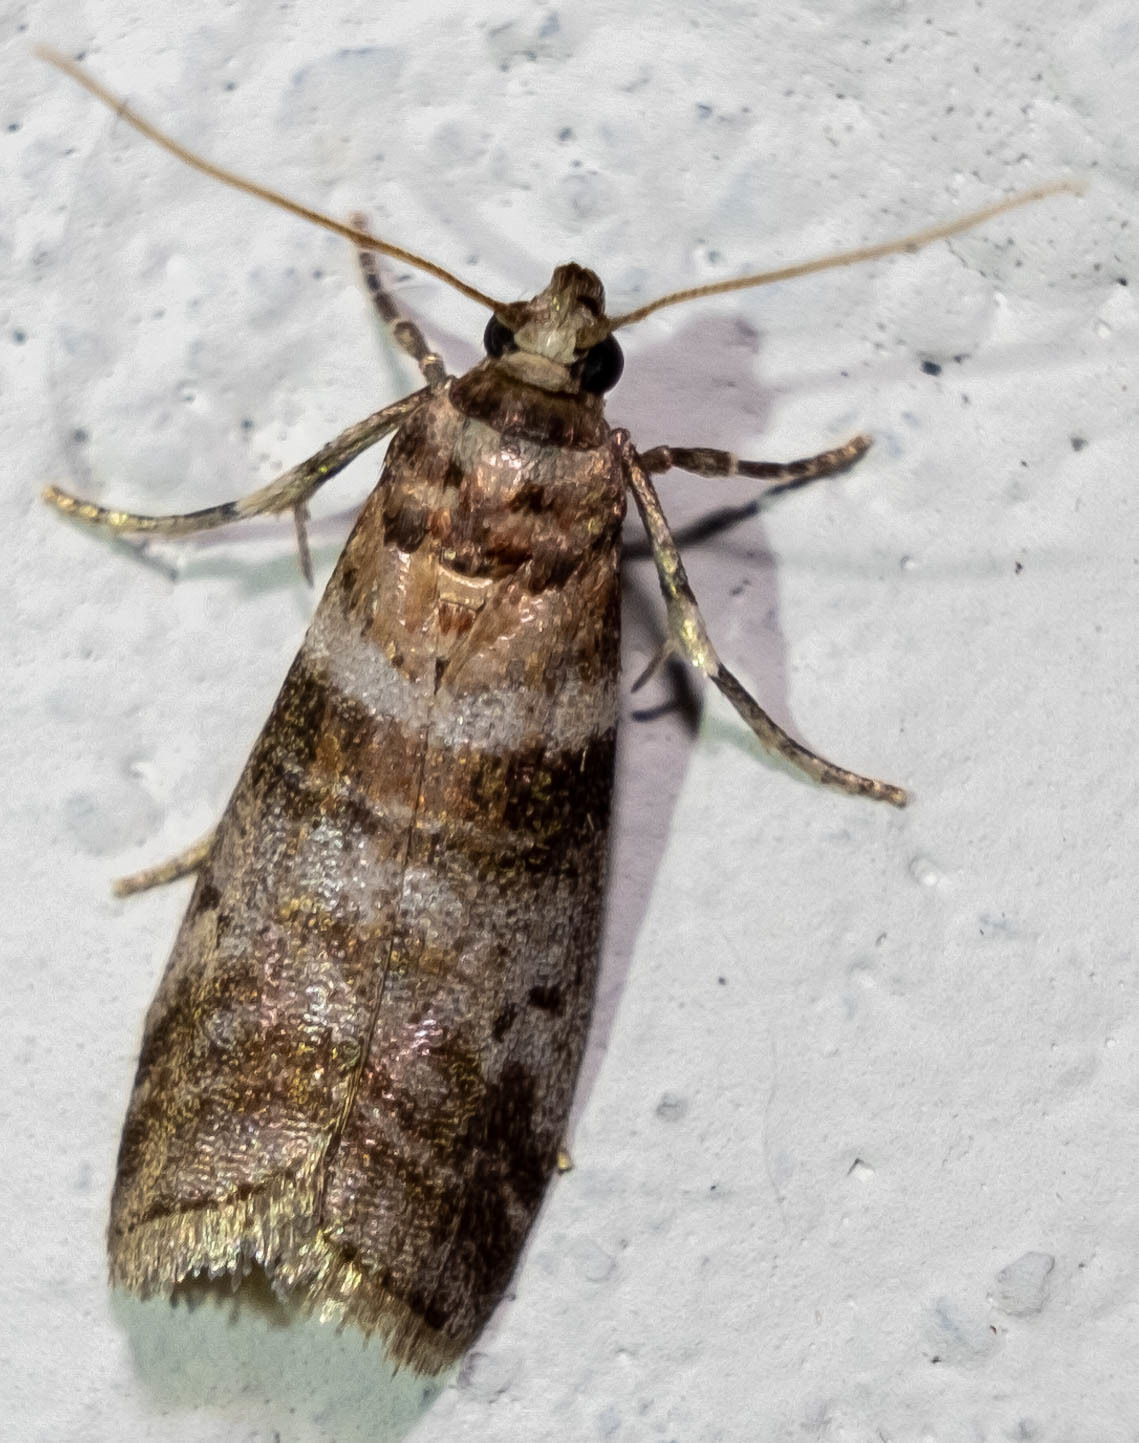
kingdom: Animalia
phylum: Arthropoda
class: Insecta
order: Lepidoptera
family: Pyralidae
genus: Sciota
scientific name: Sciota uvinella
